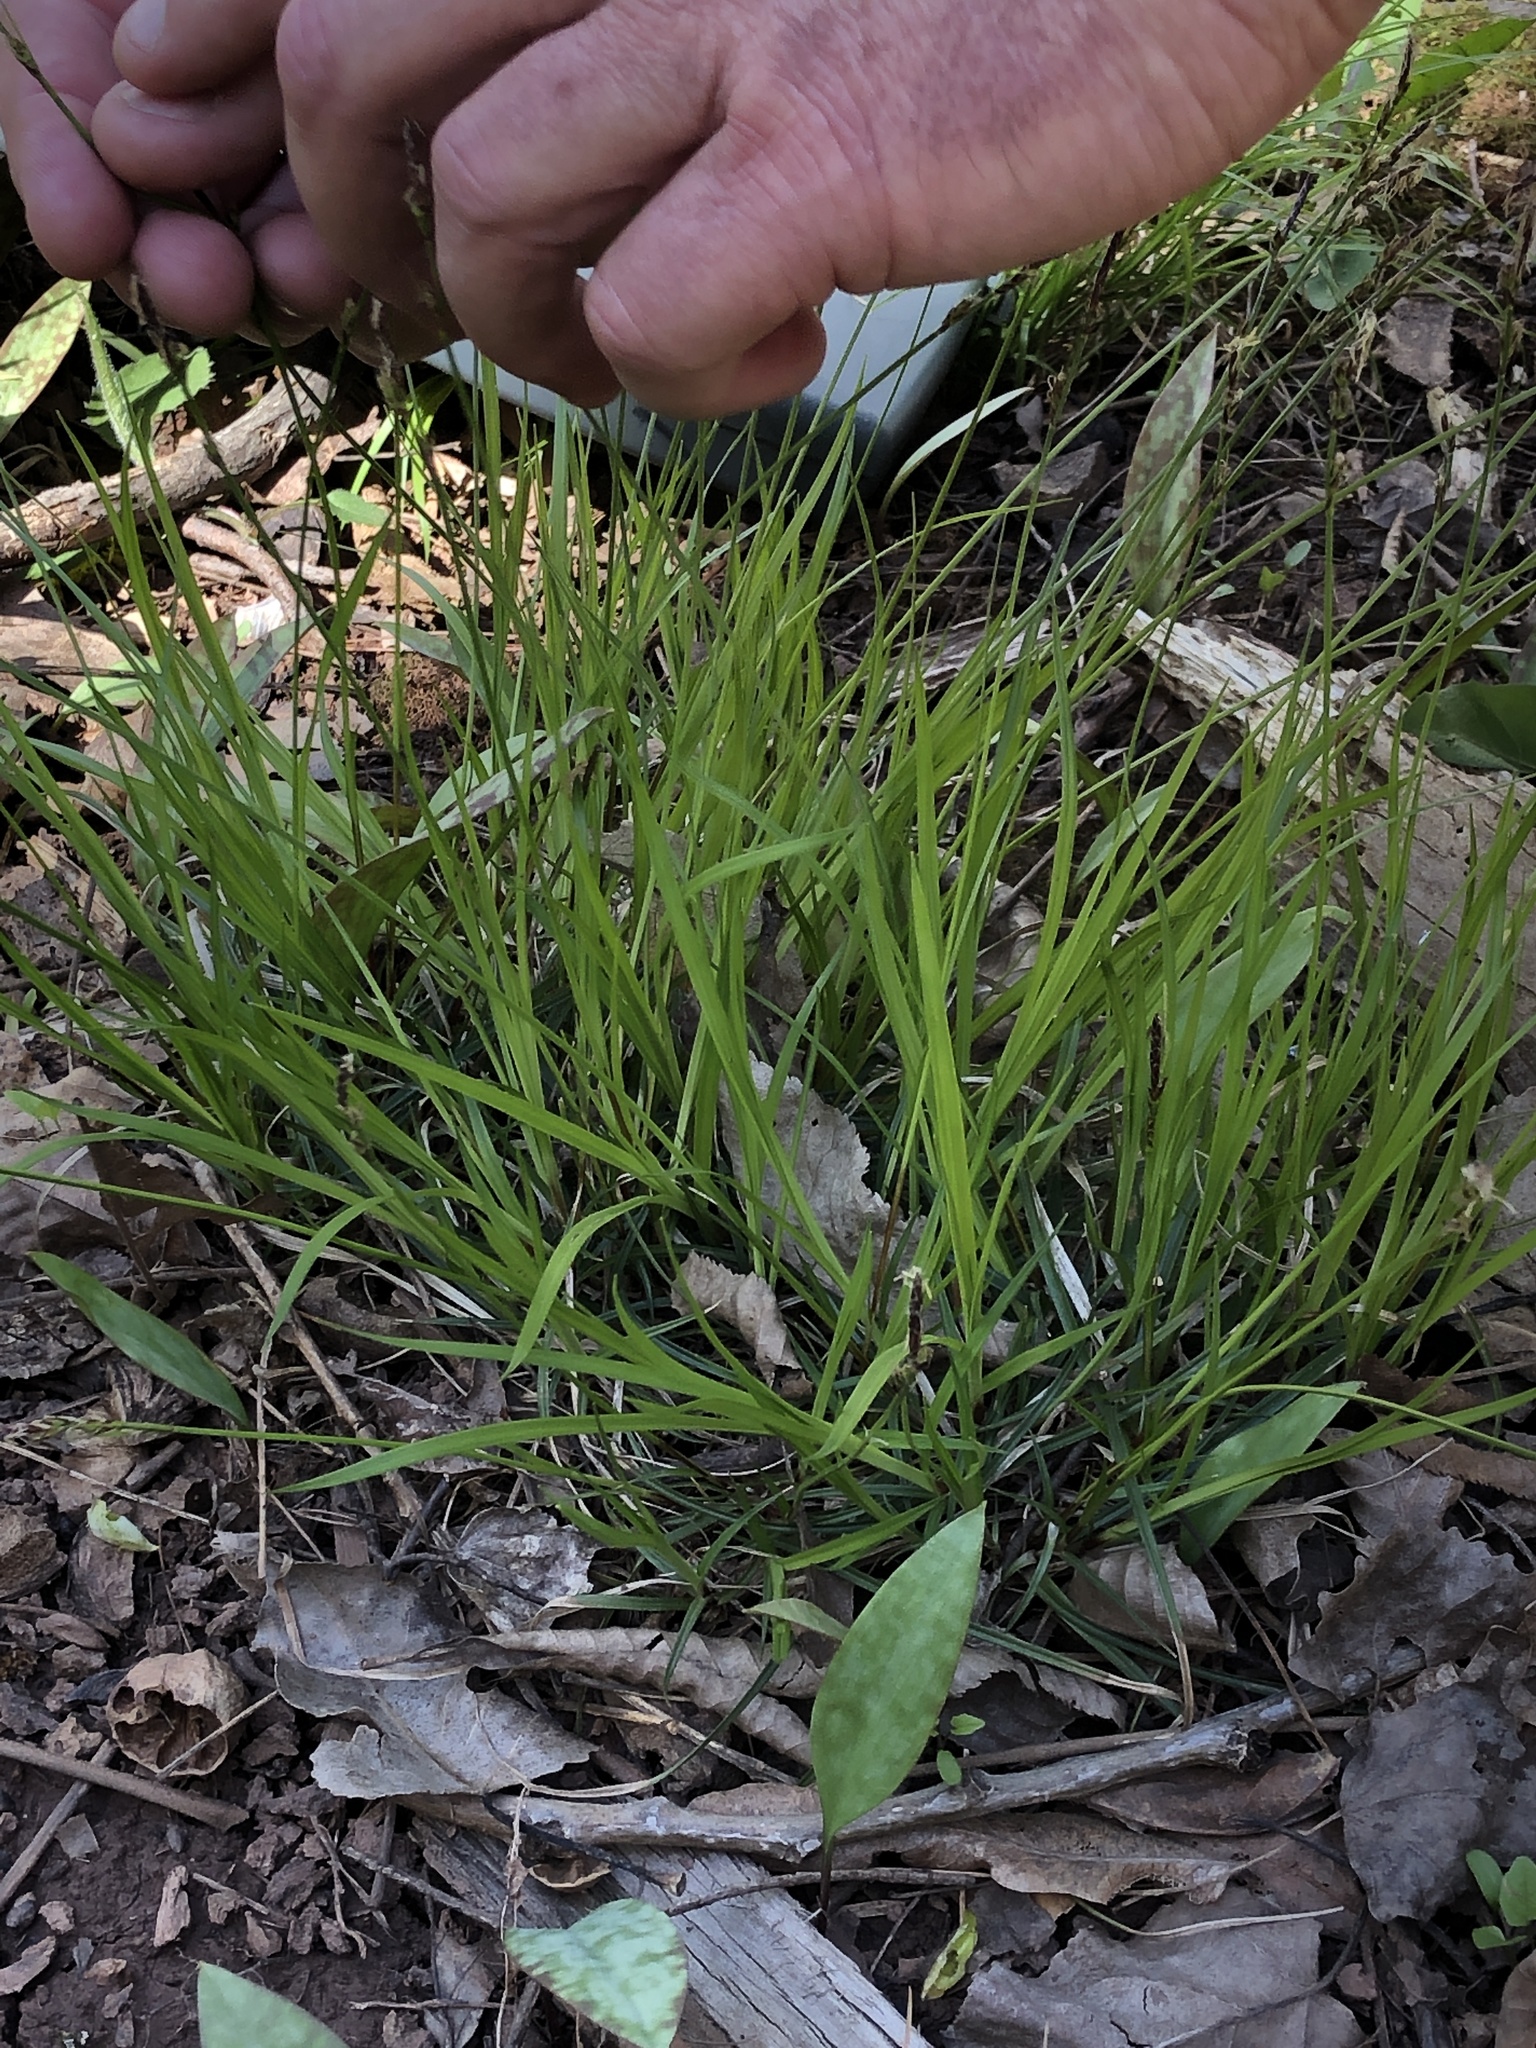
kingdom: Plantae
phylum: Tracheophyta
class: Liliopsida
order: Poales
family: Cyperaceae
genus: Carex
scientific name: Carex pensylvanica
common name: Common oak sedge
